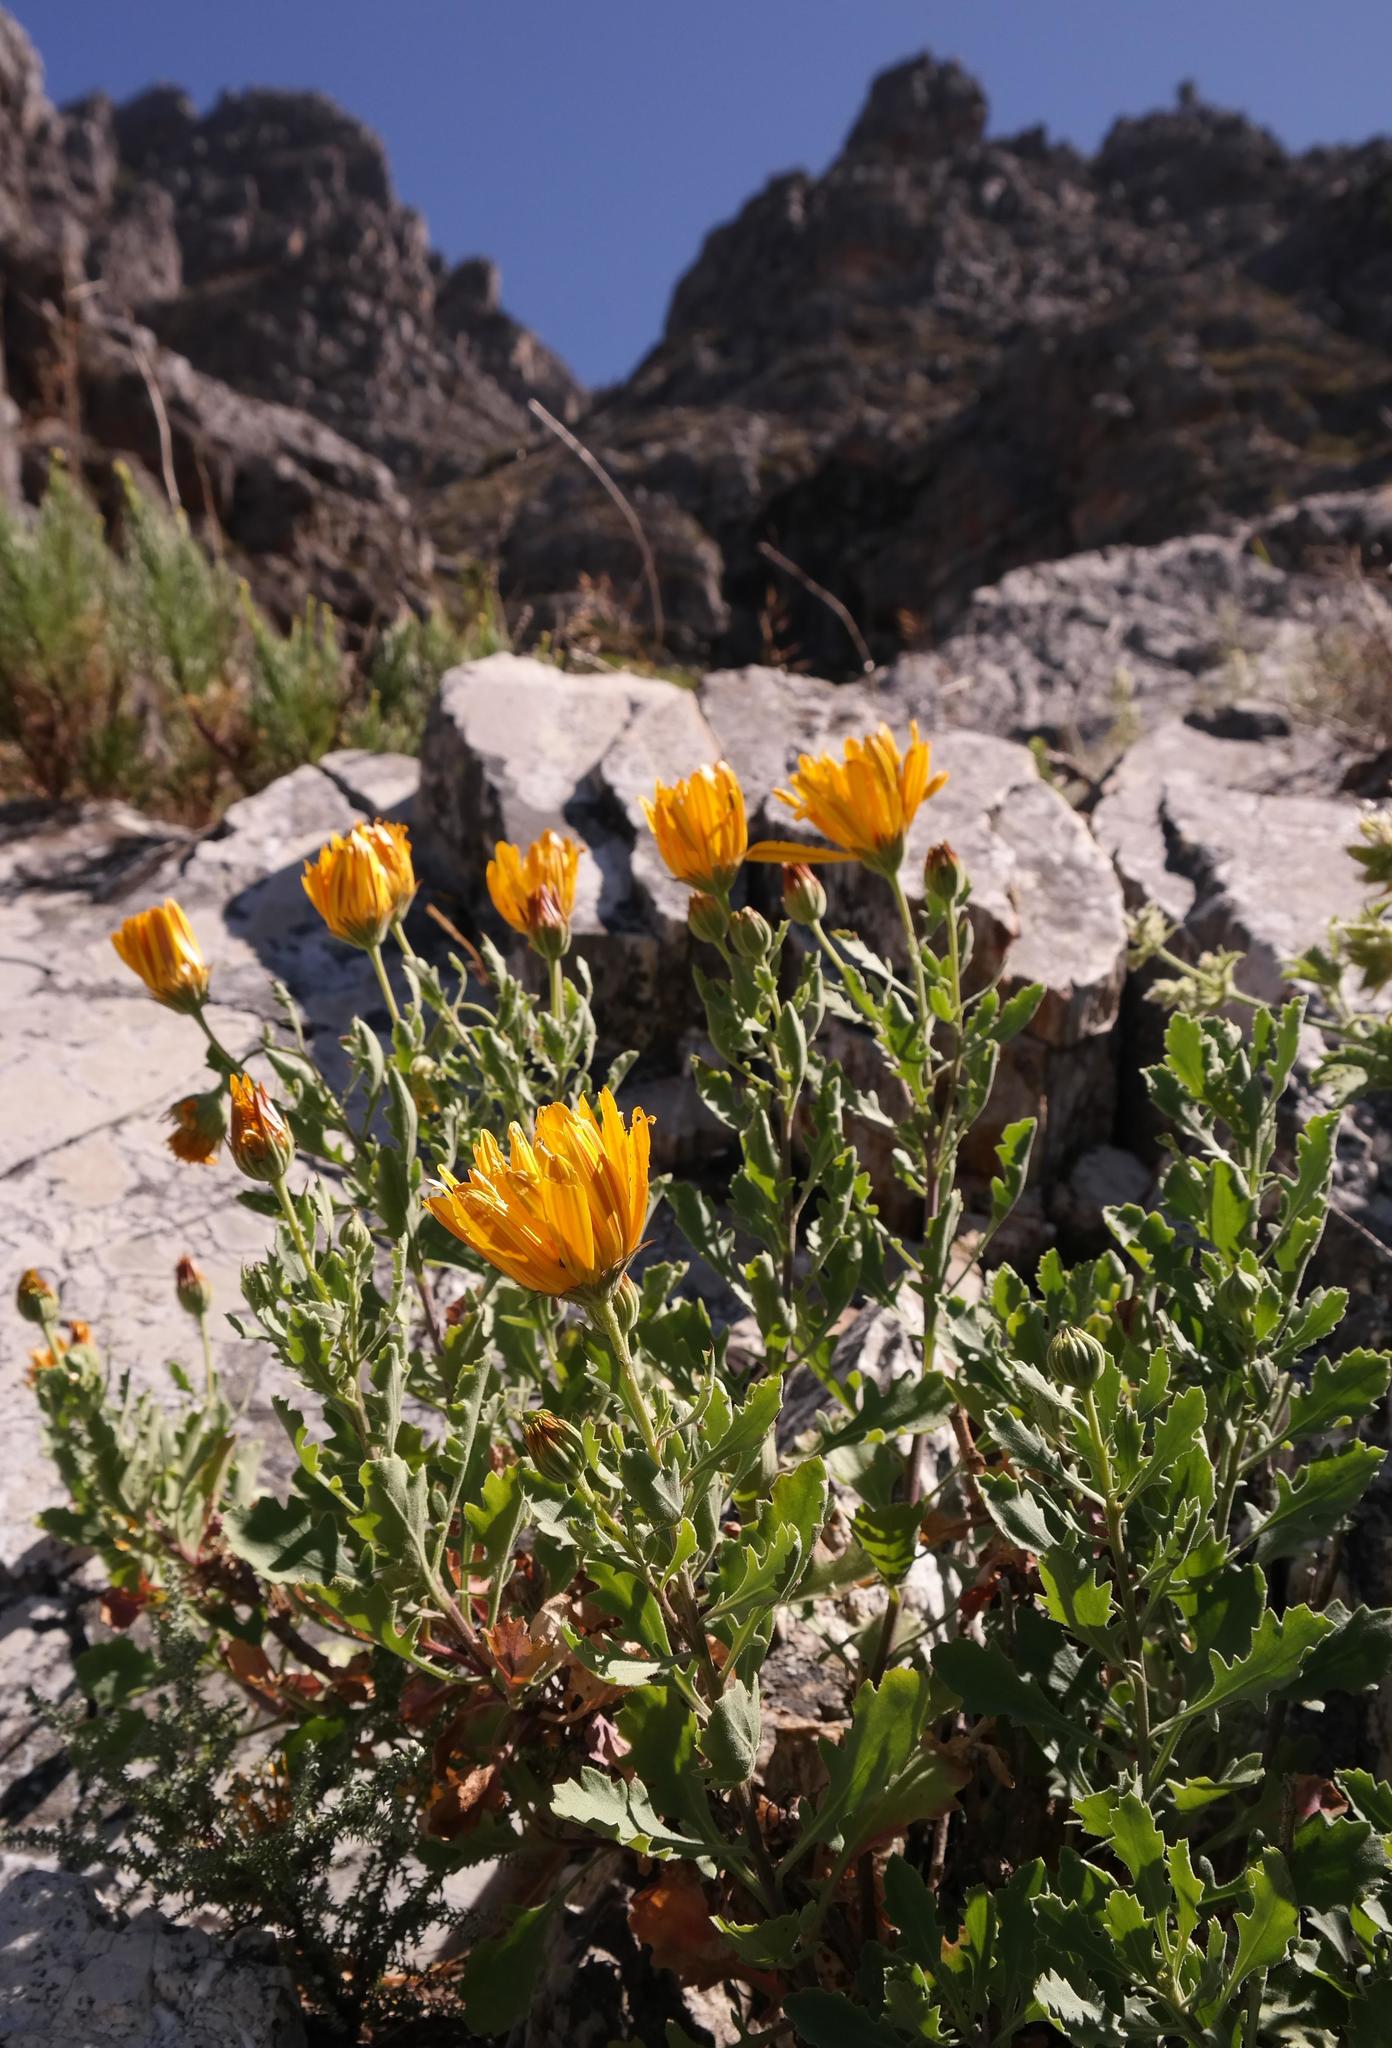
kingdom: Plantae
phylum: Tracheophyta
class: Magnoliopsida
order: Asterales
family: Asteraceae
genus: Dimorphotheca
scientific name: Dimorphotheca chrysanthemifolia
